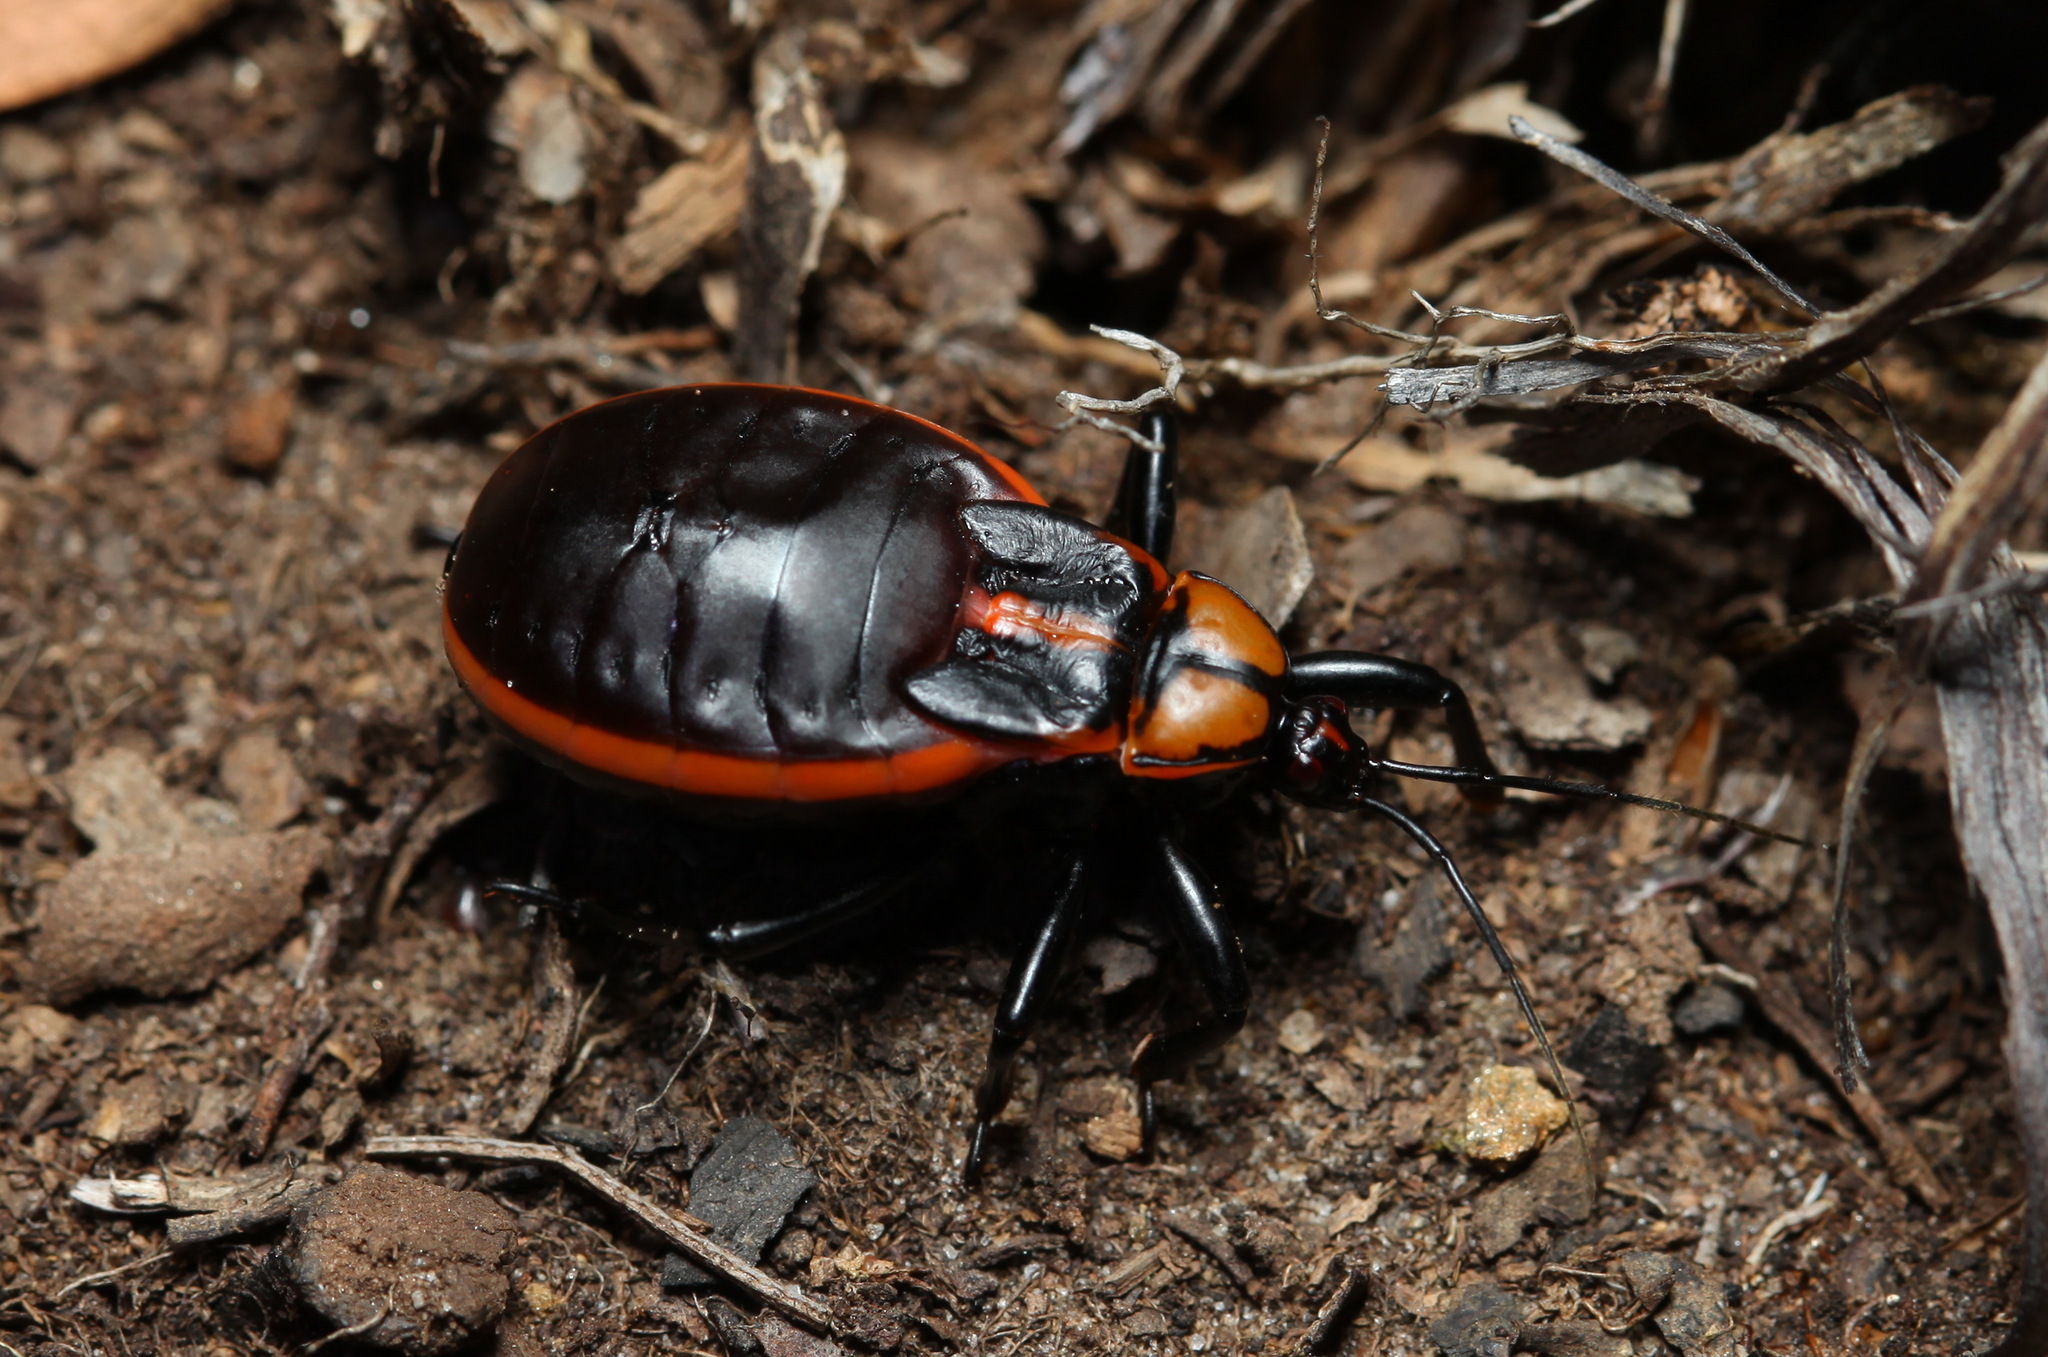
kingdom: Animalia
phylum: Arthropoda
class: Insecta
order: Hemiptera
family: Reduviidae
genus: Ectrichodia
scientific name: Ectrichodia crux
